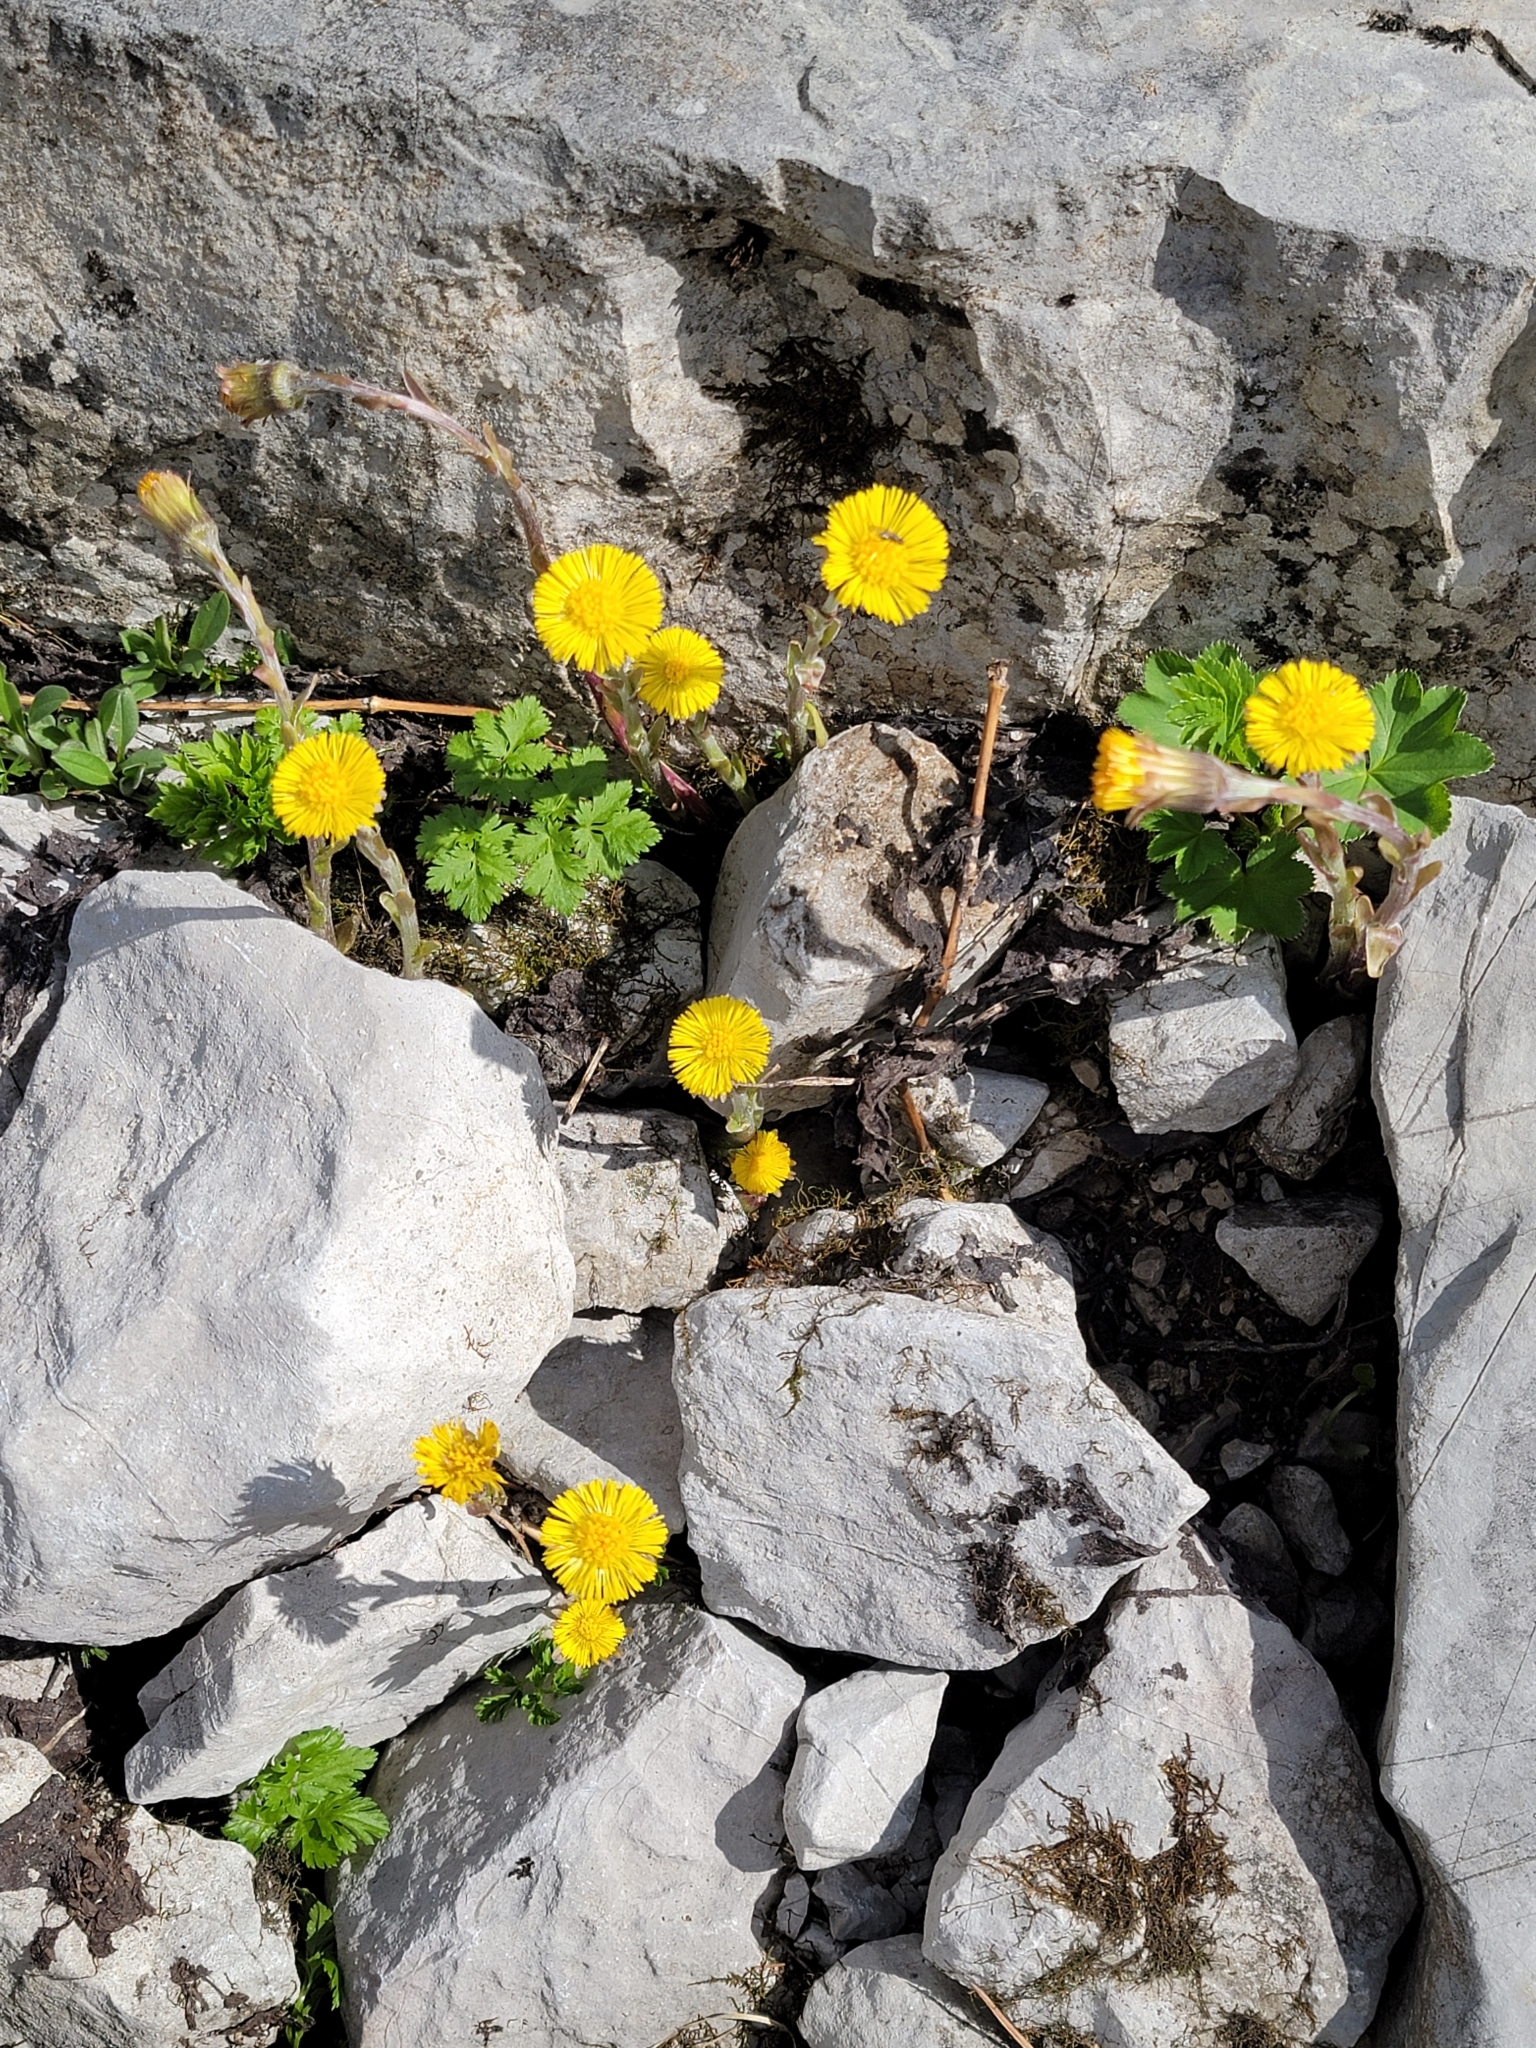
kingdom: Plantae
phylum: Tracheophyta
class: Magnoliopsida
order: Asterales
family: Asteraceae
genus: Tussilago
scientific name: Tussilago farfara
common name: Coltsfoot
